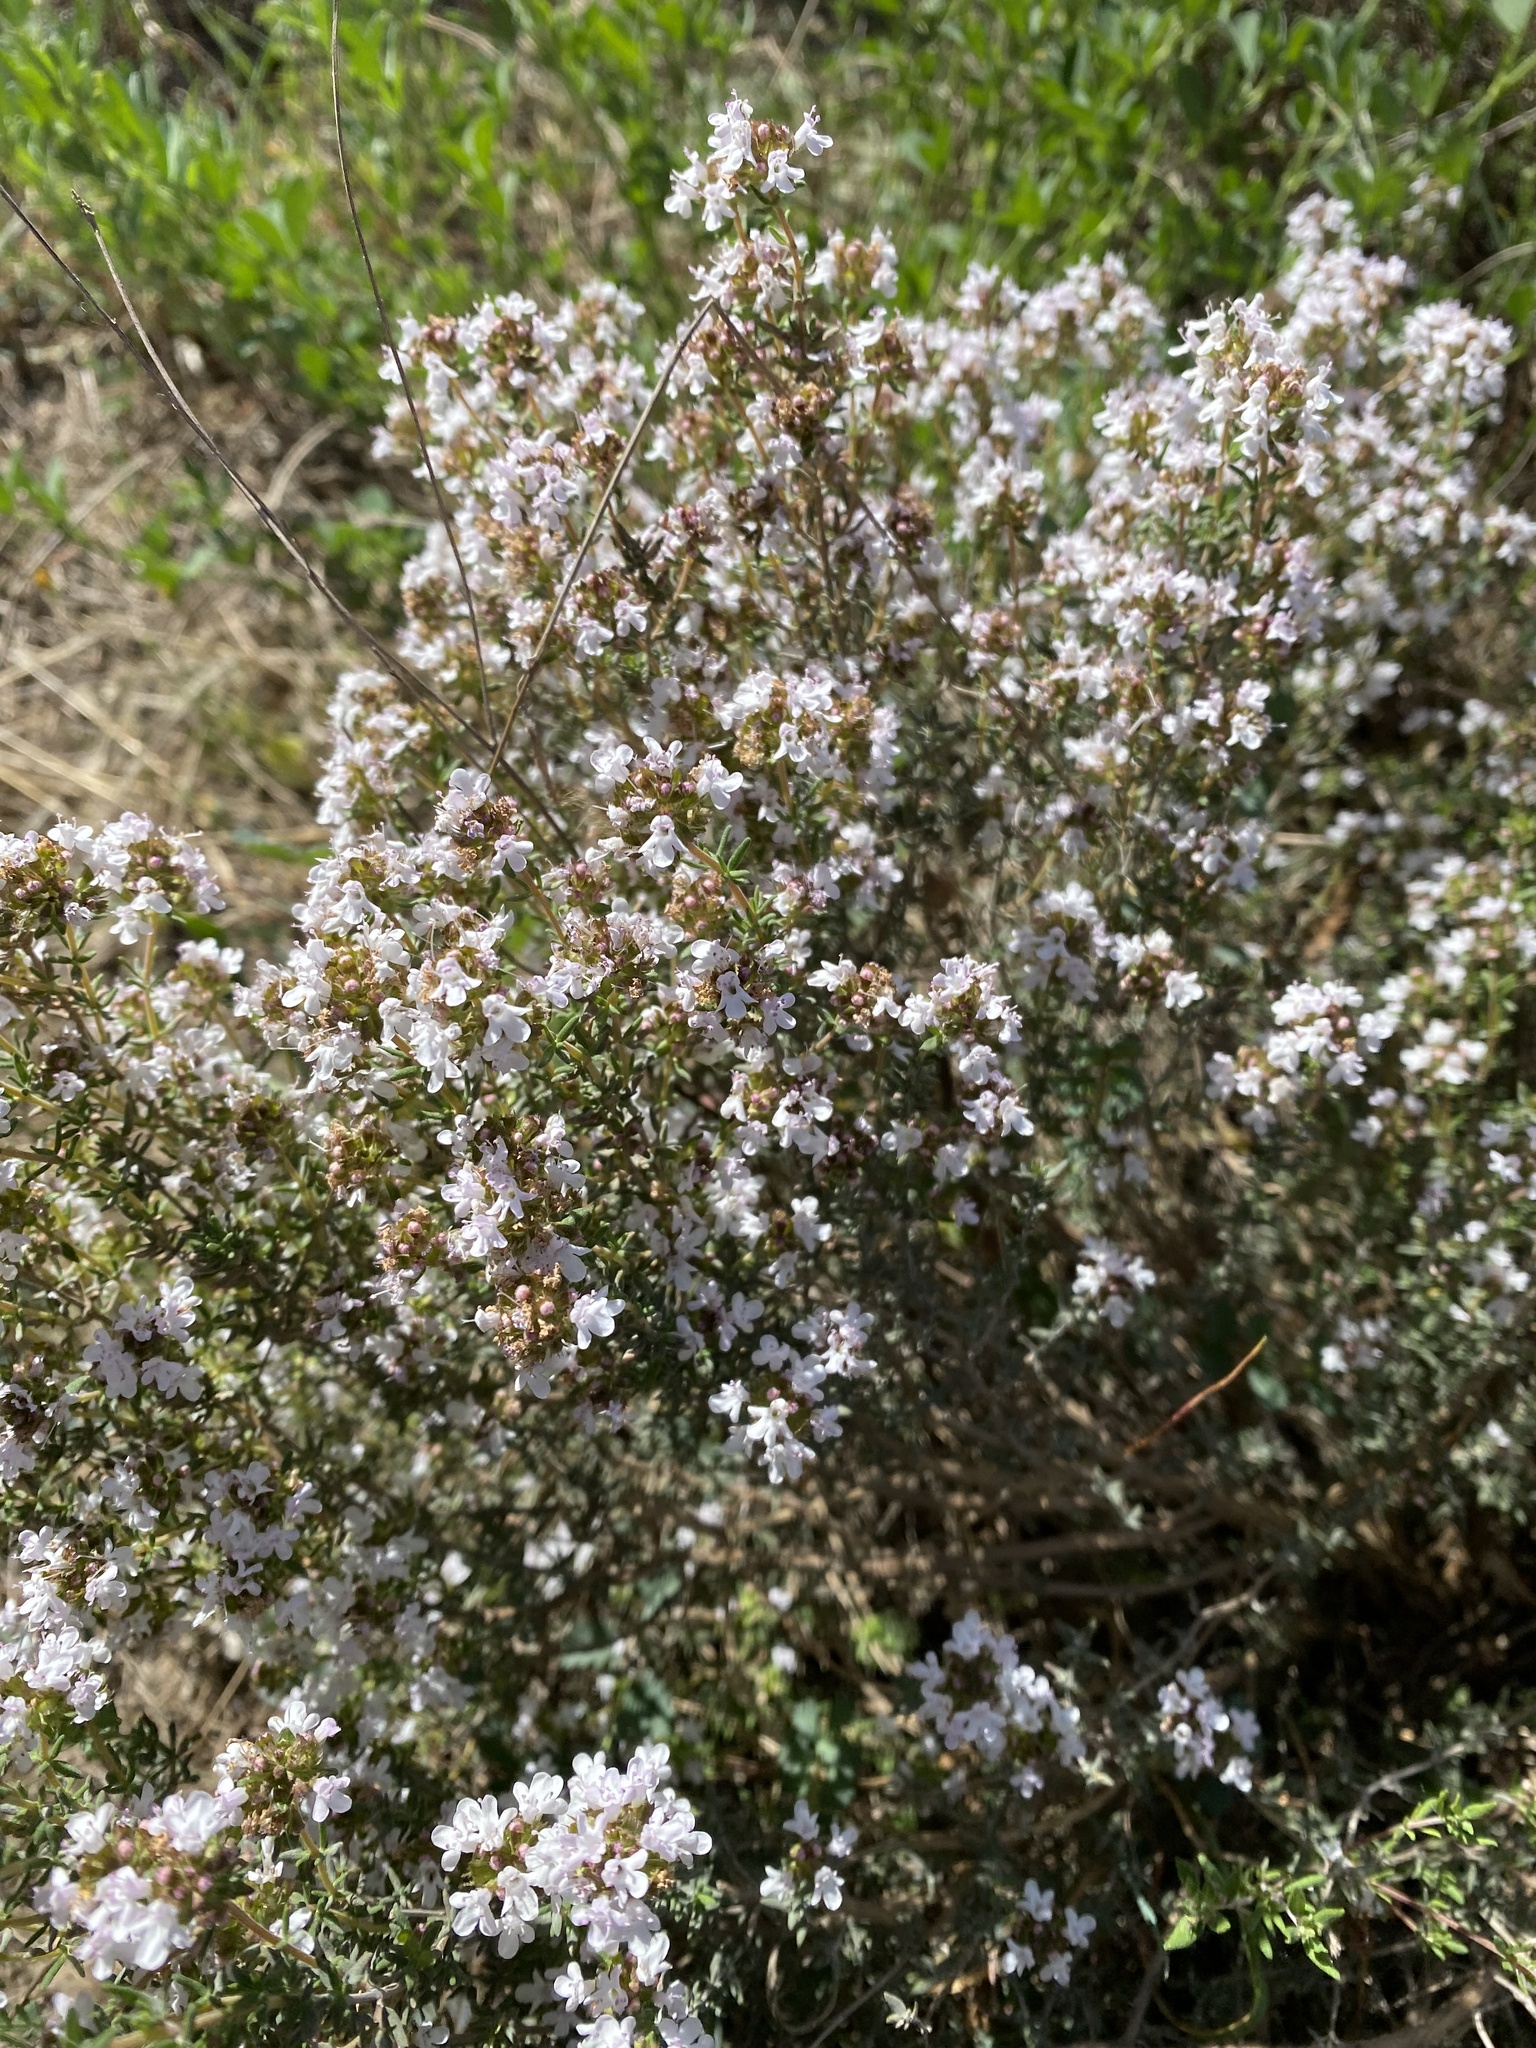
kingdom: Plantae
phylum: Tracheophyta
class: Magnoliopsida
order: Lamiales
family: Lamiaceae
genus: Thymus
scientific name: Thymus vulgaris
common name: Garden thyme
